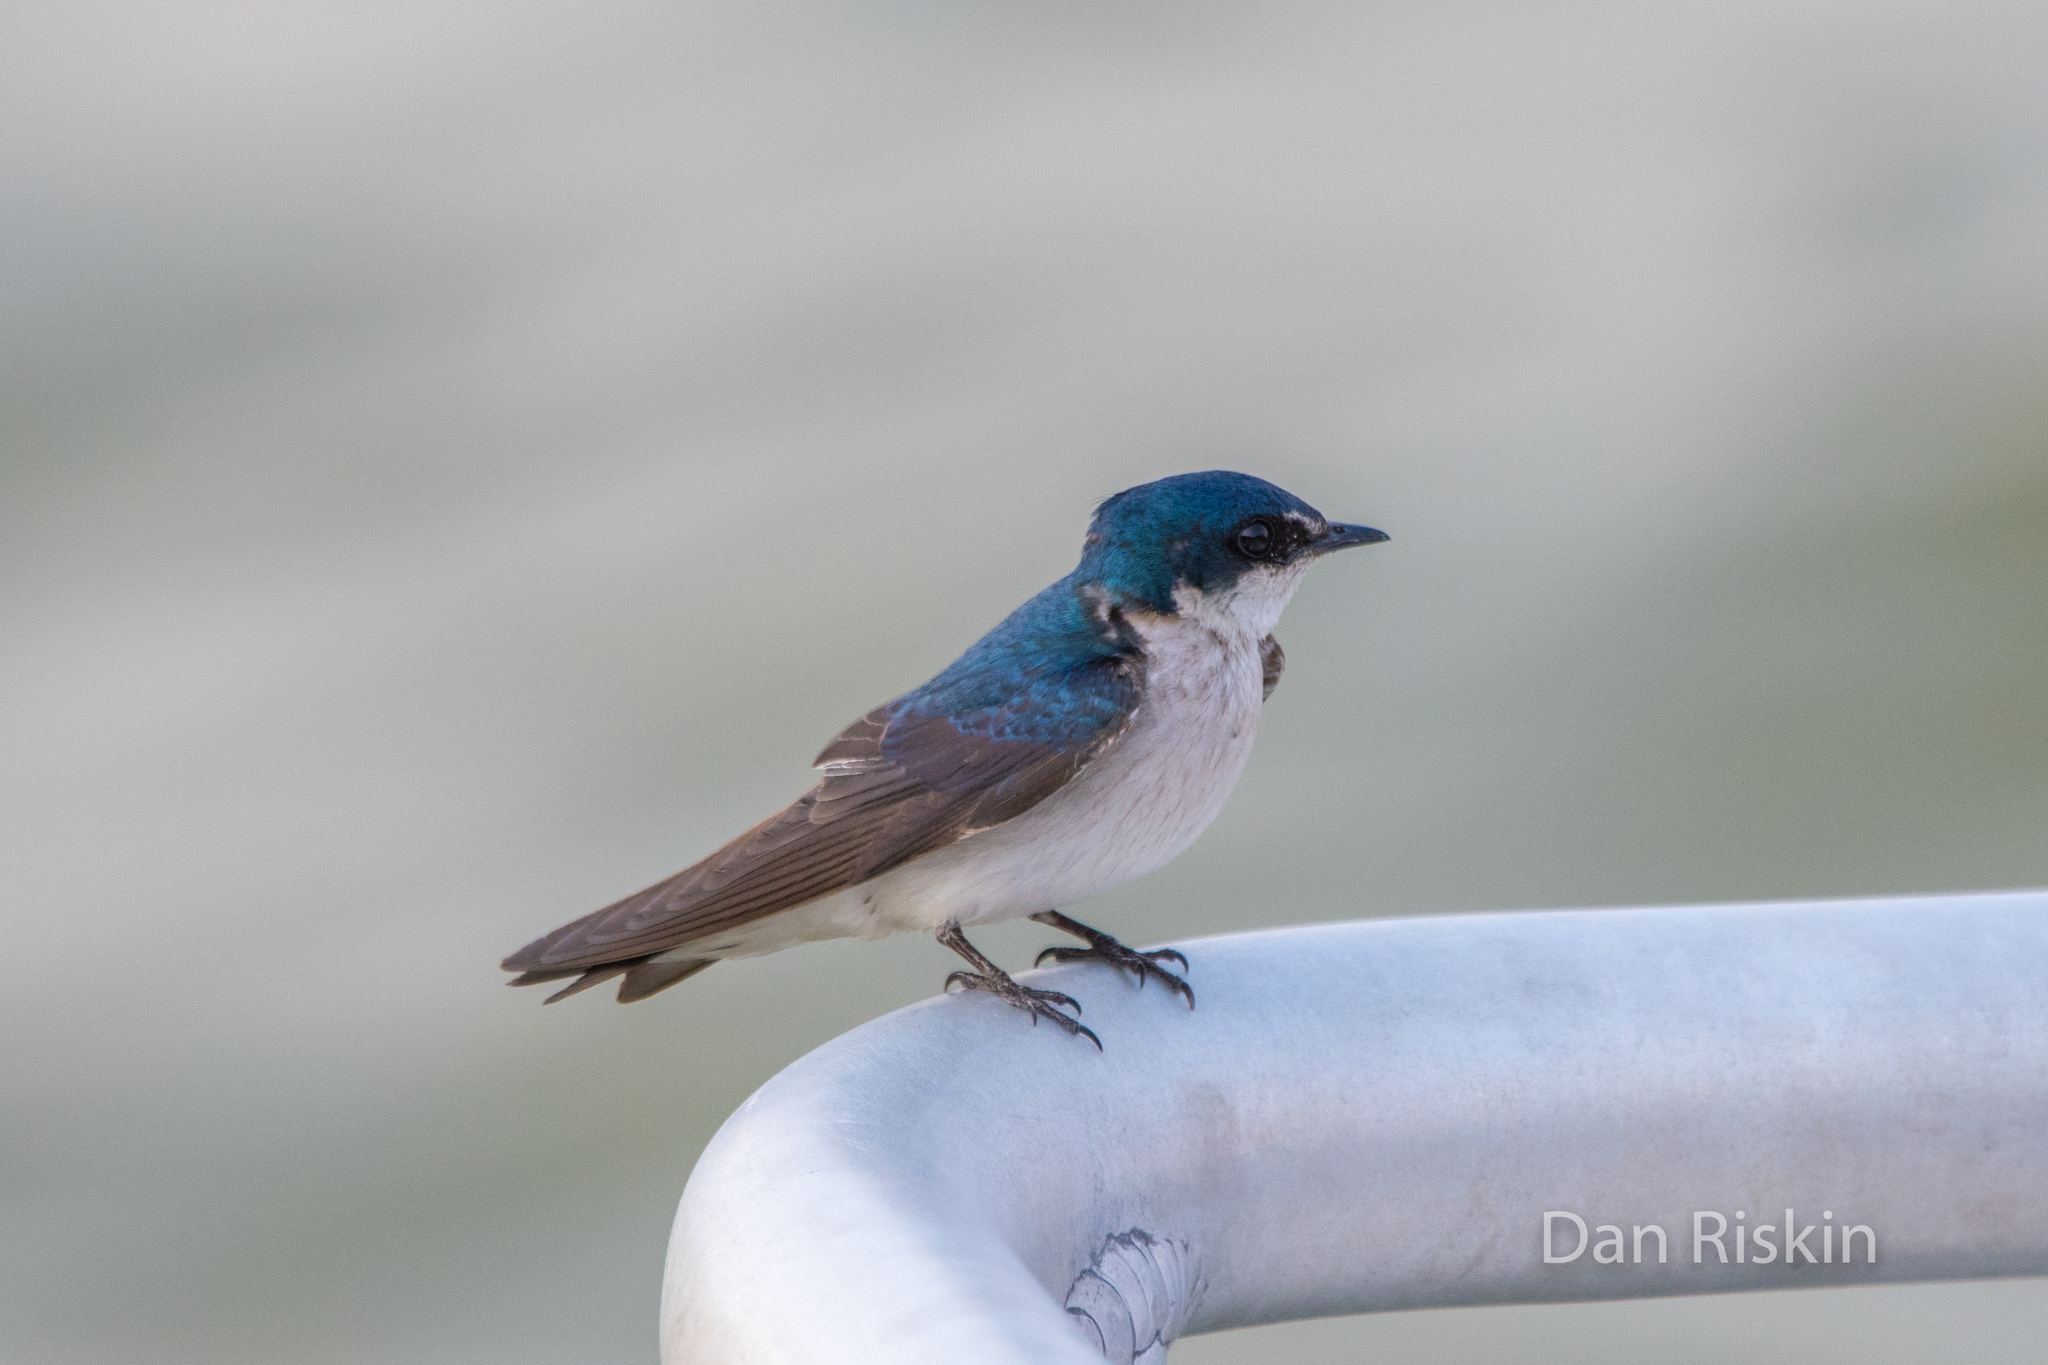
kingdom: Animalia
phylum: Chordata
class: Aves
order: Passeriformes
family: Hirundinidae
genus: Tachycineta
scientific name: Tachycineta albilinea
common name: Mangrove swallow
